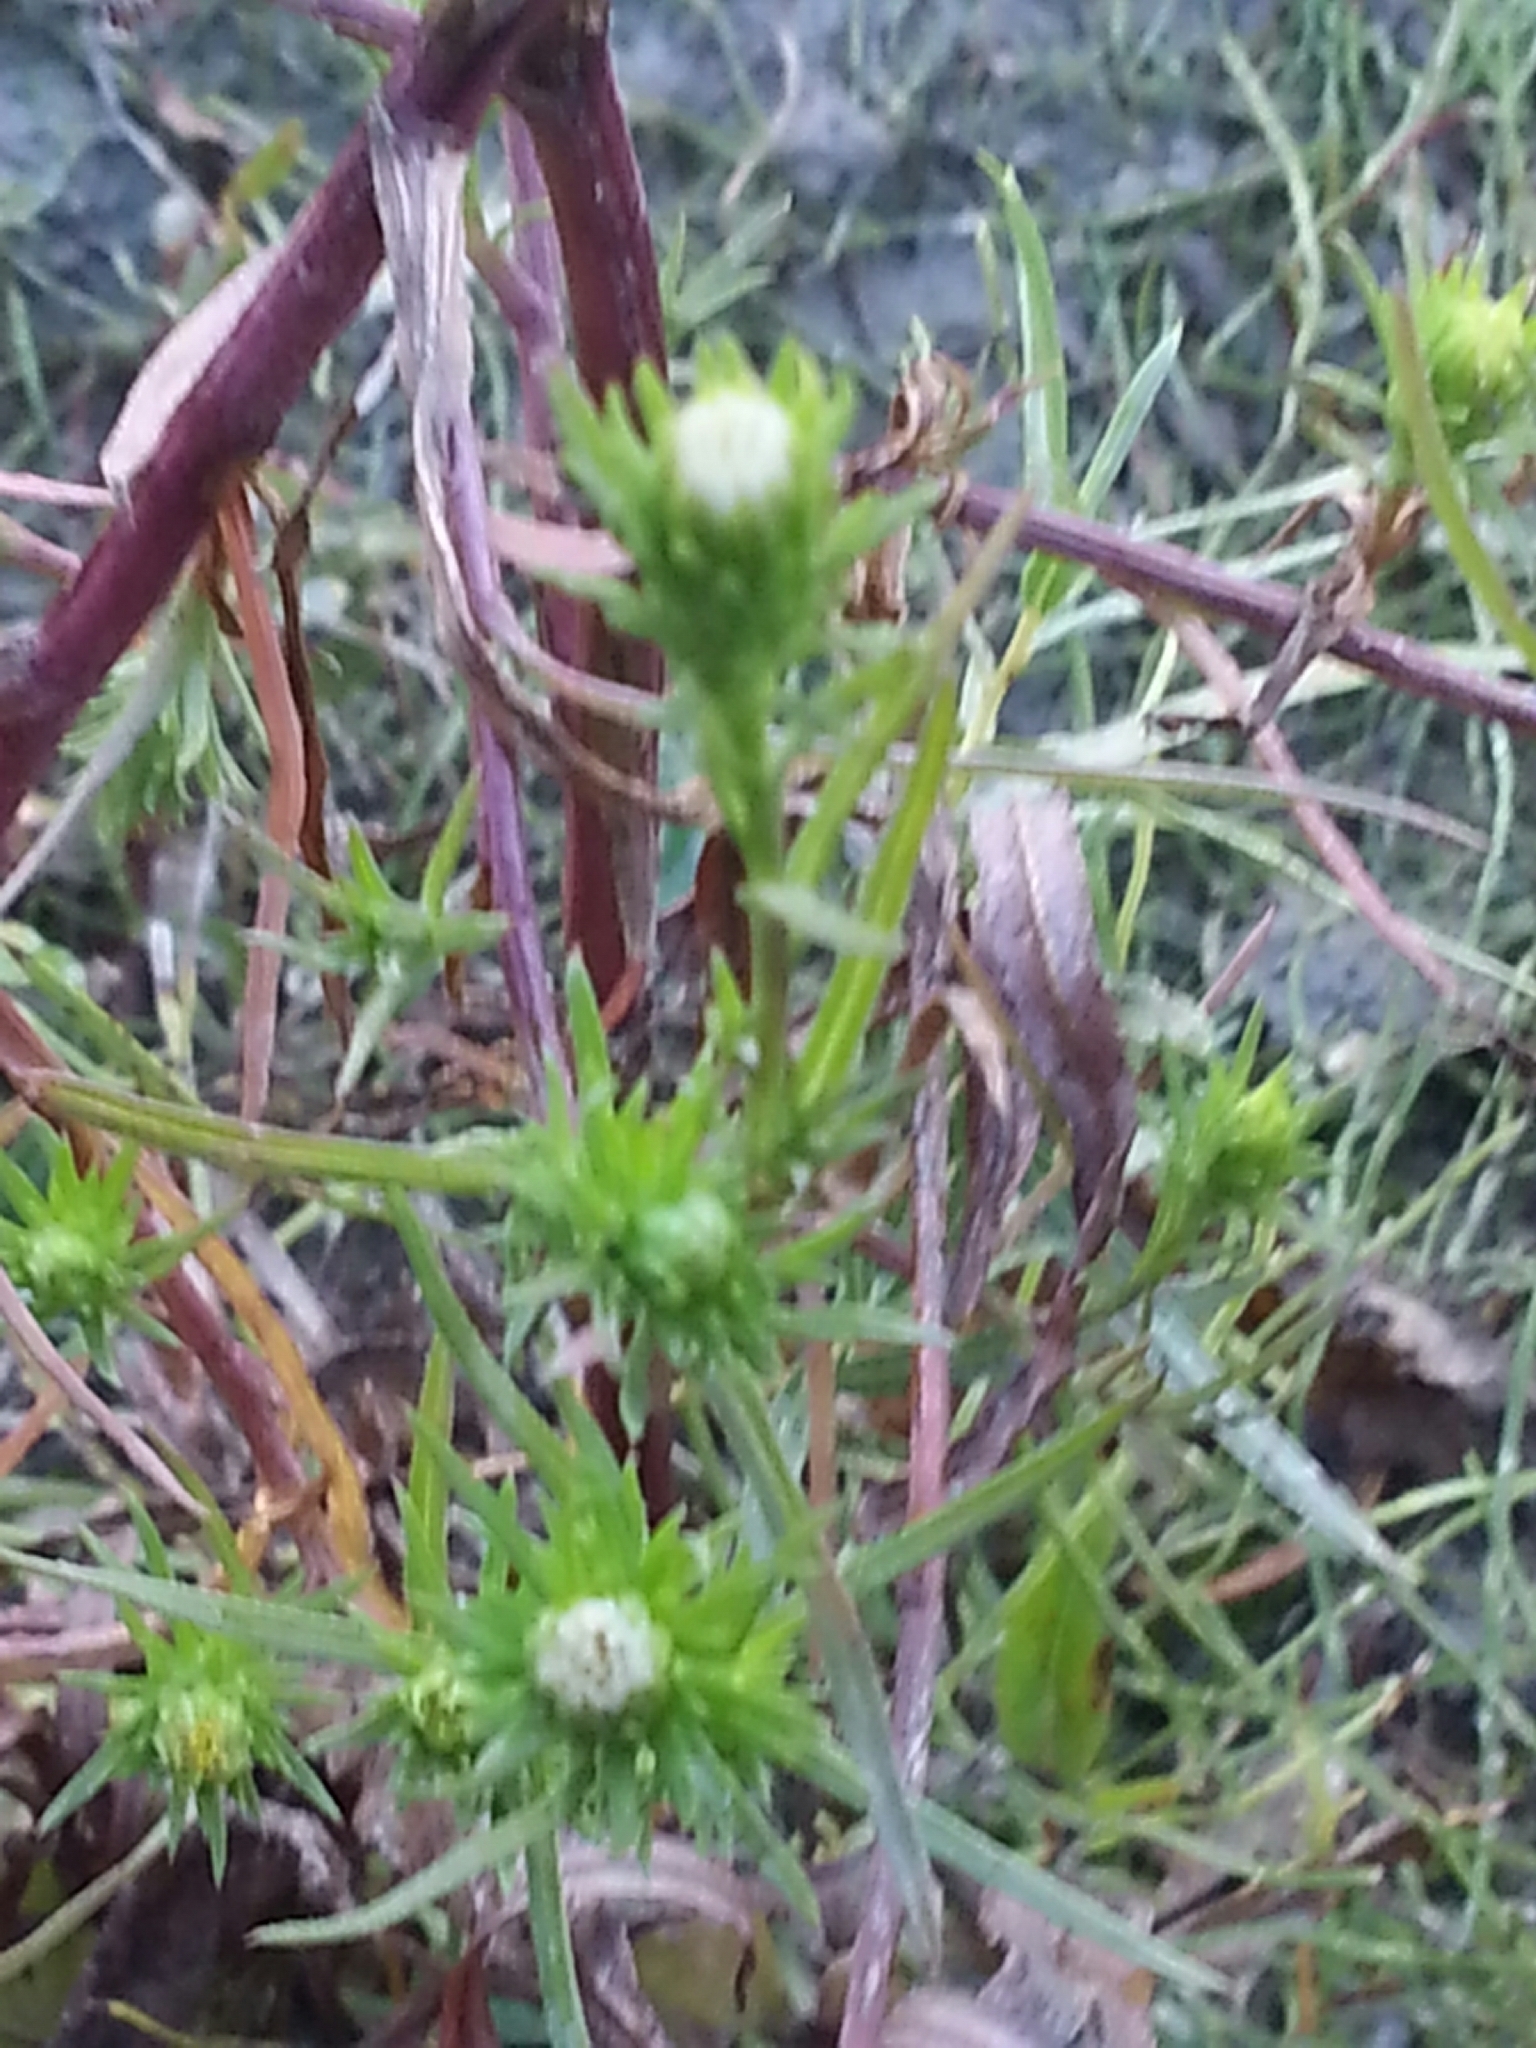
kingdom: Plantae
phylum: Tracheophyta
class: Magnoliopsida
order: Asterales
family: Asteraceae
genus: Symphyotrichum
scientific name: Symphyotrichum ciliatum
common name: Rayless annual aster
